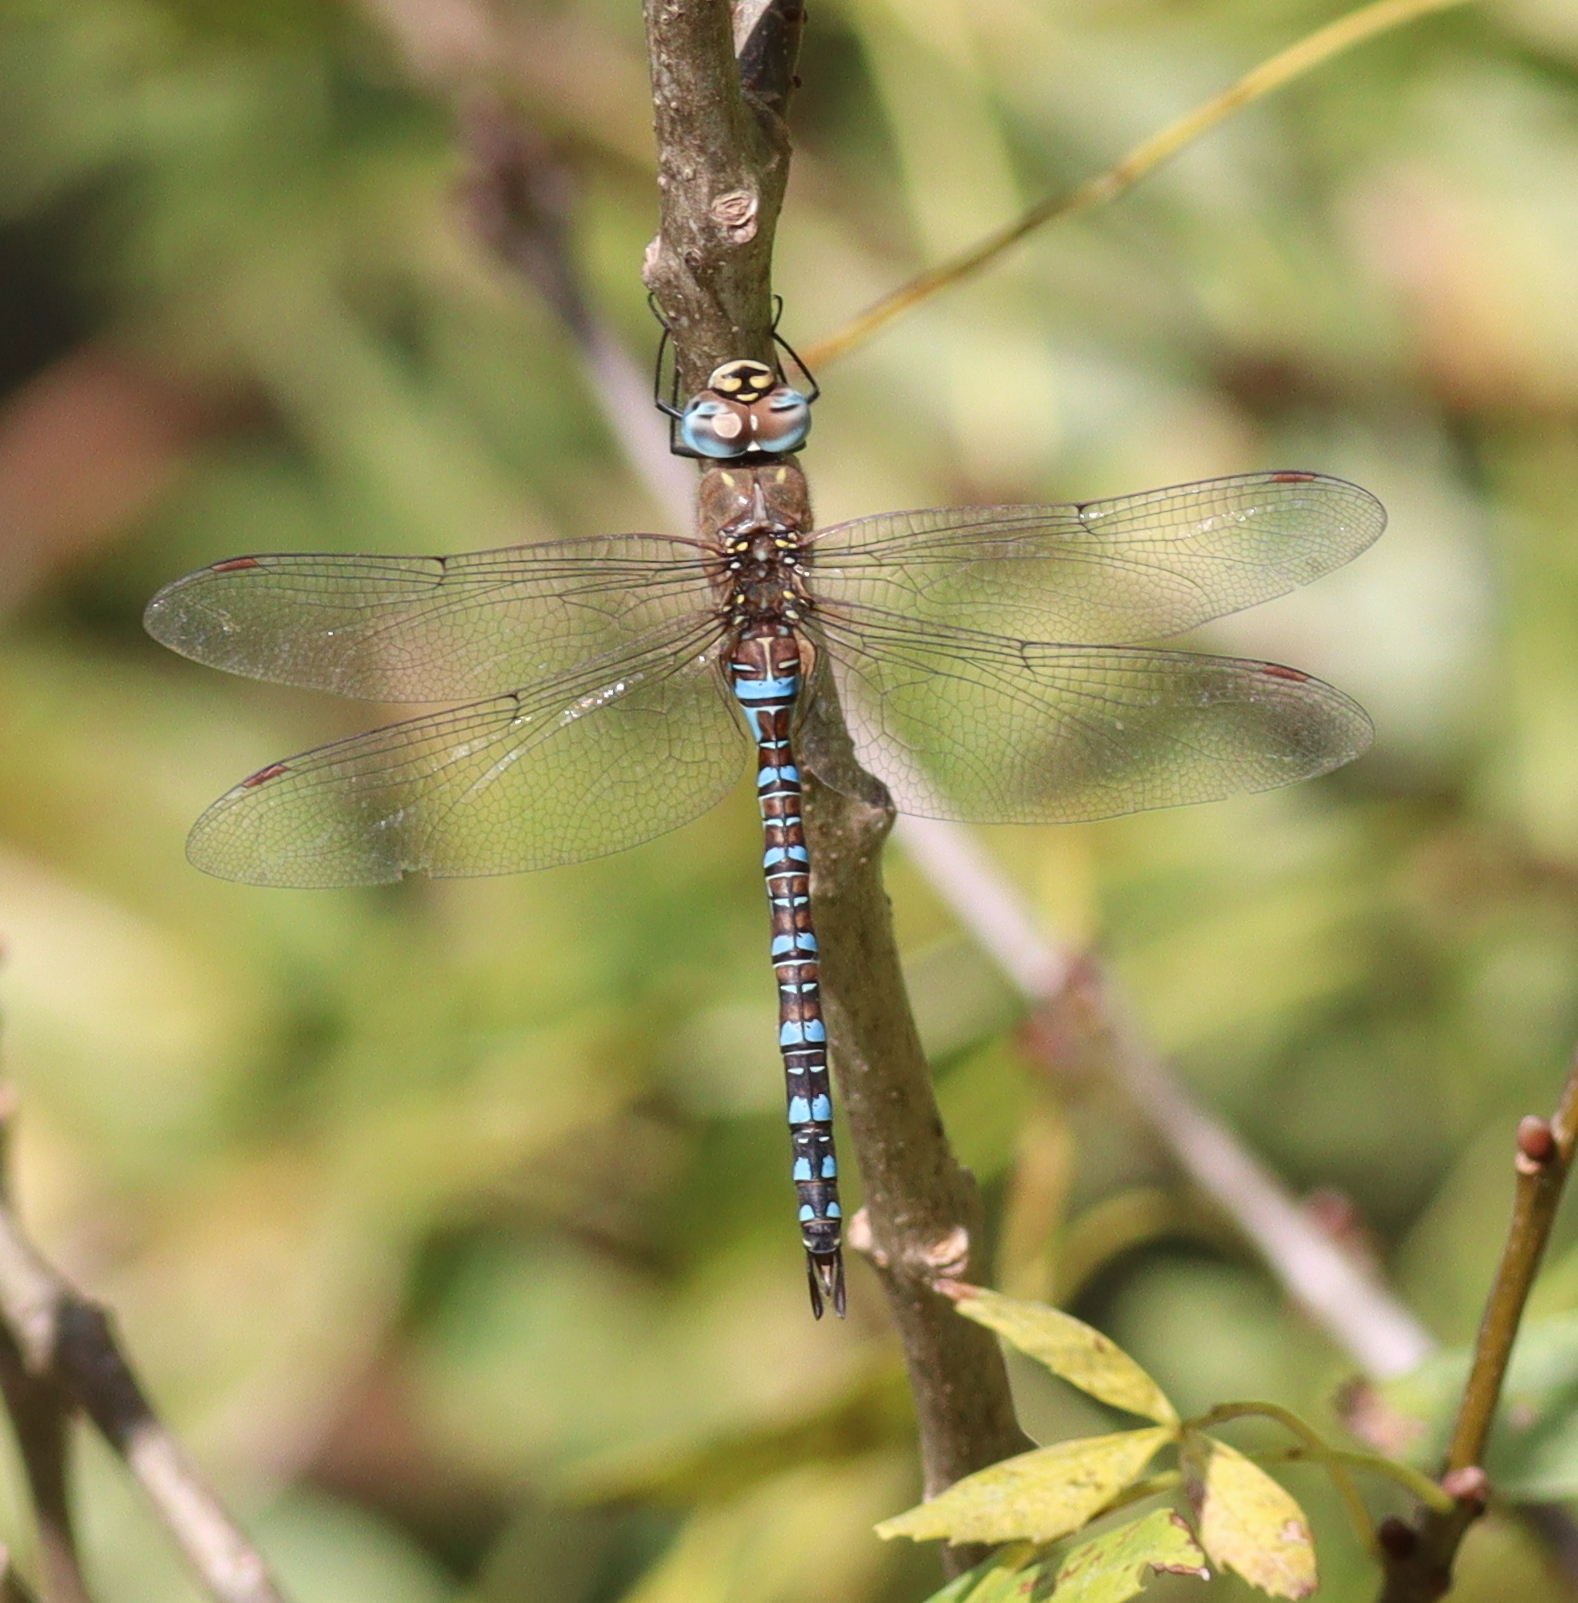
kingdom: Animalia
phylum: Arthropoda
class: Insecta
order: Odonata
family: Aeshnidae
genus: Aeshna
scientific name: Aeshna mixta
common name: Migrant hawker
